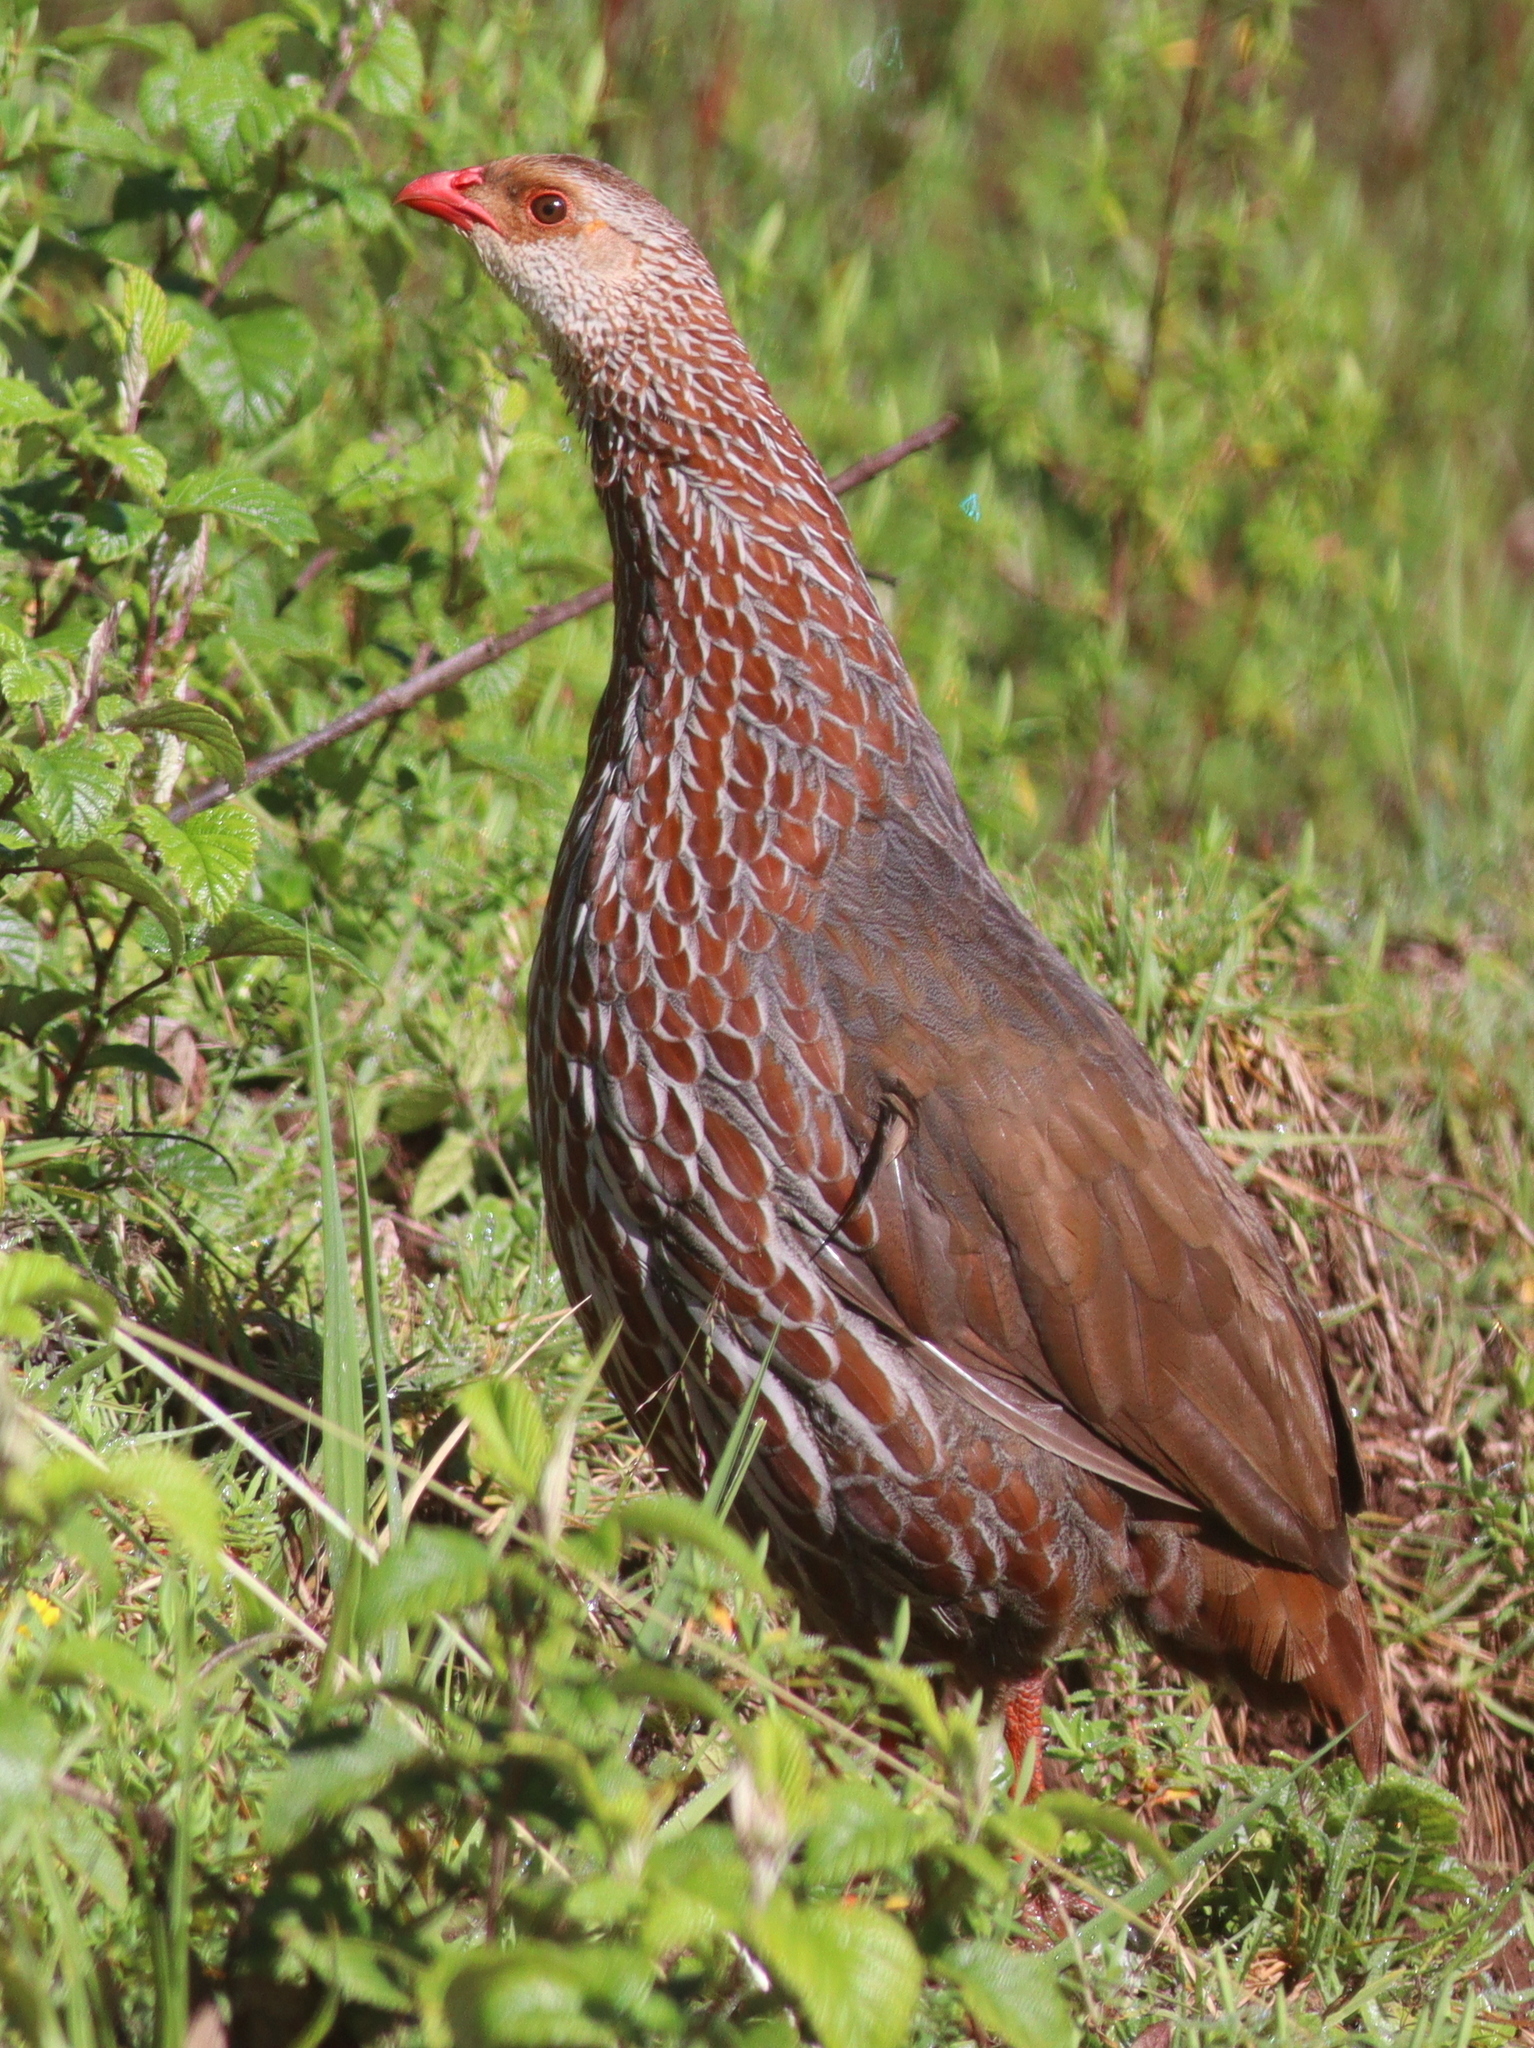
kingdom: Animalia
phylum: Chordata
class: Aves
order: Galliformes
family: Phasianidae
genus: Pternistis
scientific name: Pternistis jacksoni
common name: Jackson's francolin
